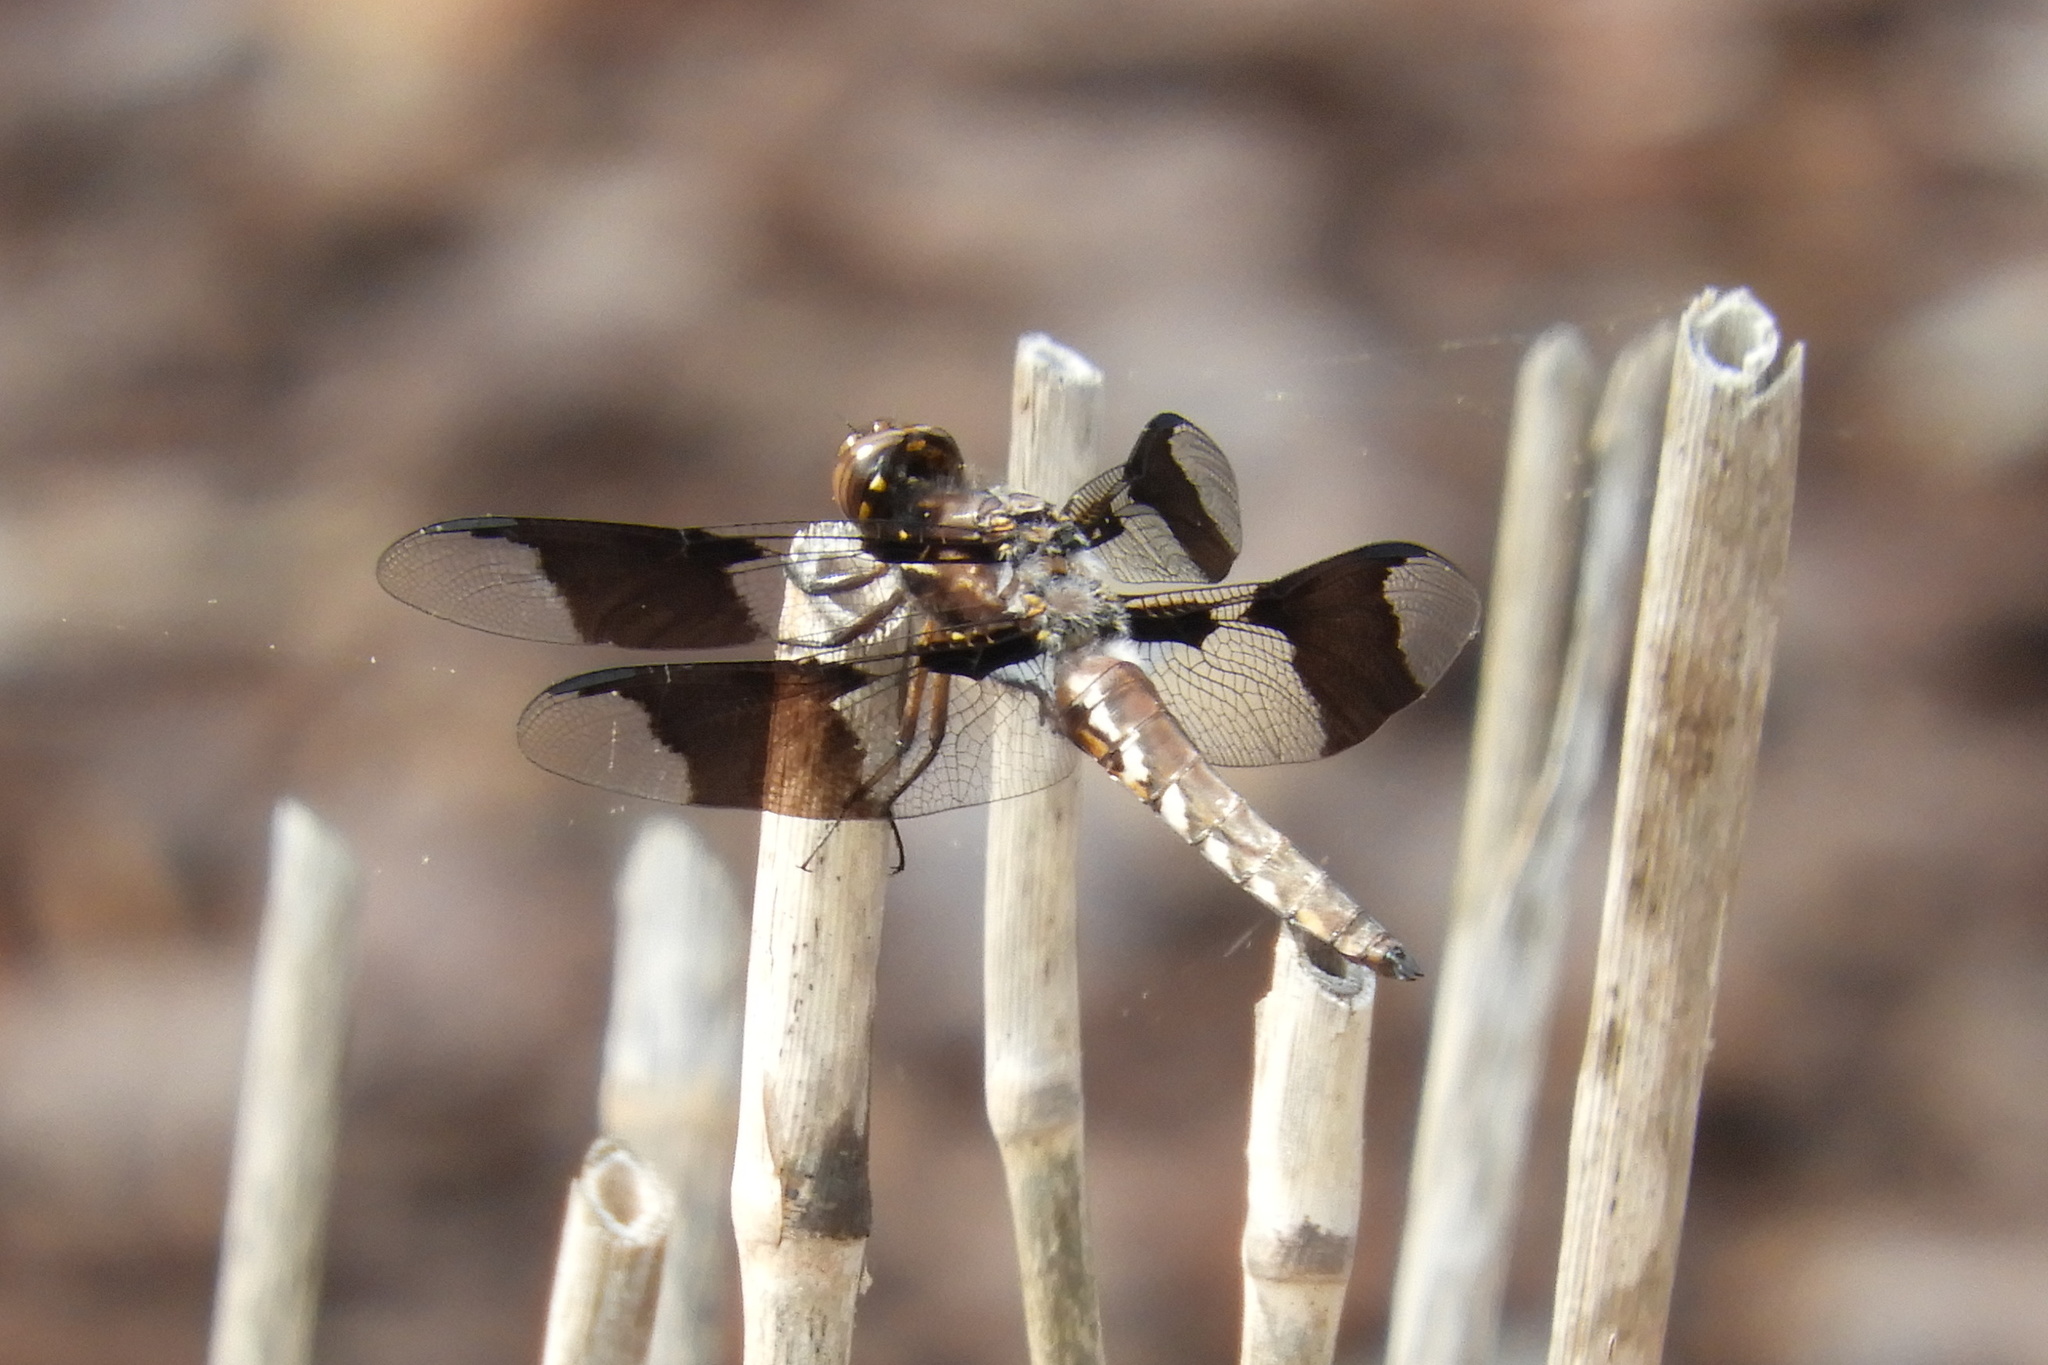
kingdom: Animalia
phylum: Arthropoda
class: Insecta
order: Odonata
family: Libellulidae
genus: Plathemis
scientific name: Plathemis lydia
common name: Common whitetail
